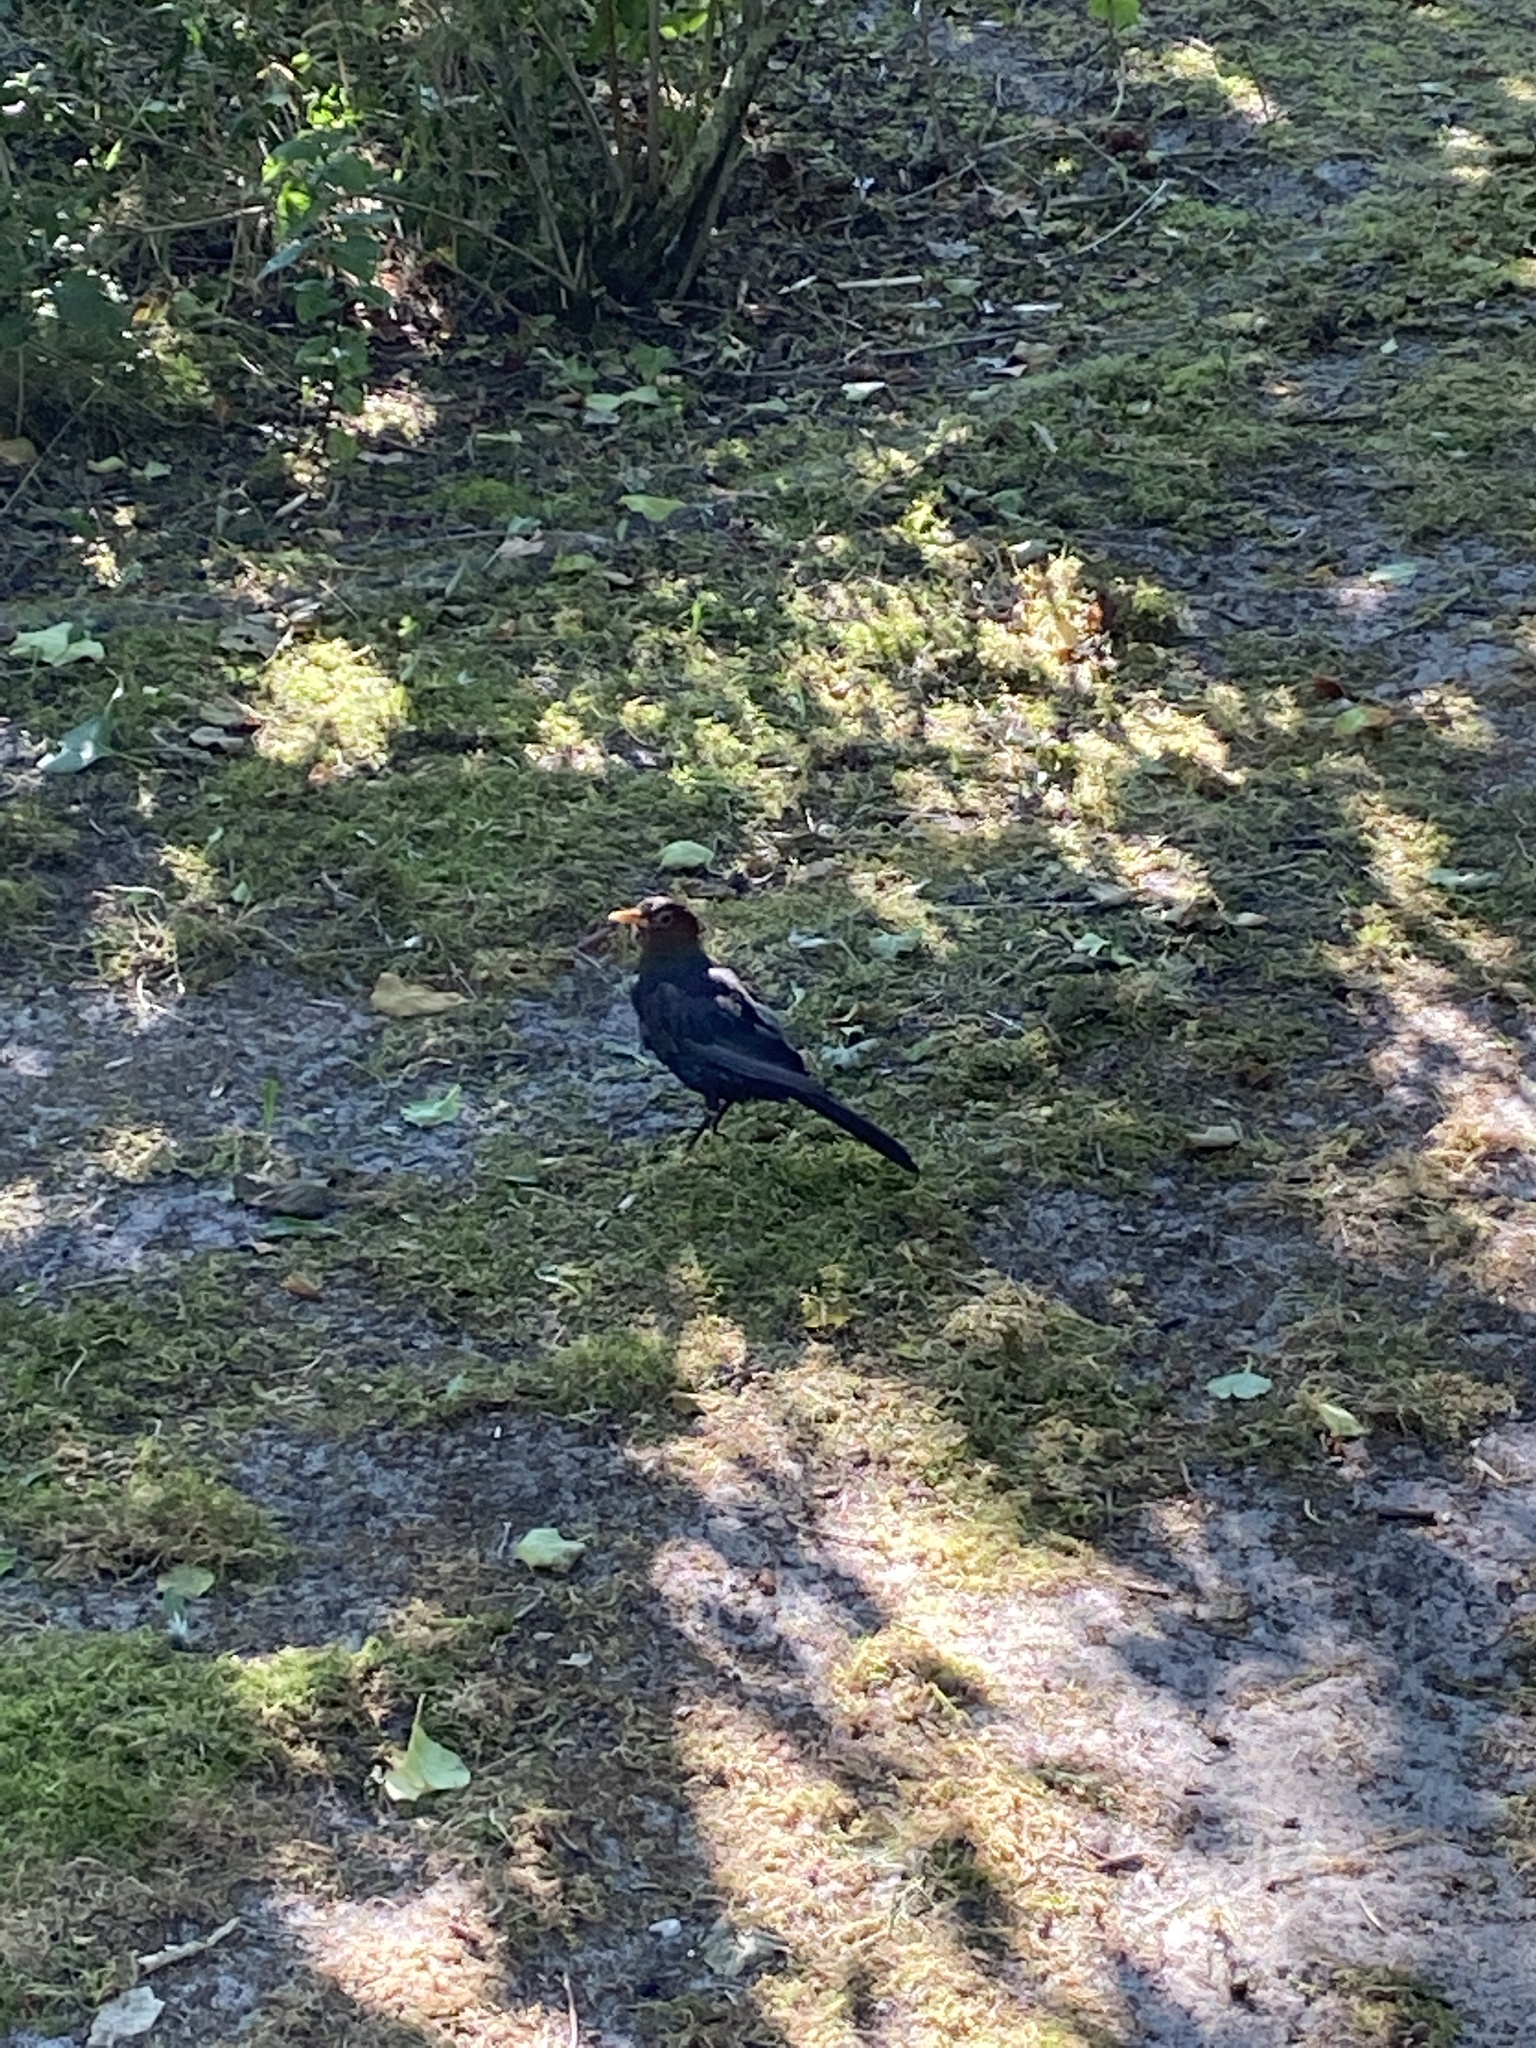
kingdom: Animalia
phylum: Chordata
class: Aves
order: Passeriformes
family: Turdidae
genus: Turdus
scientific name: Turdus merula
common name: Common blackbird
